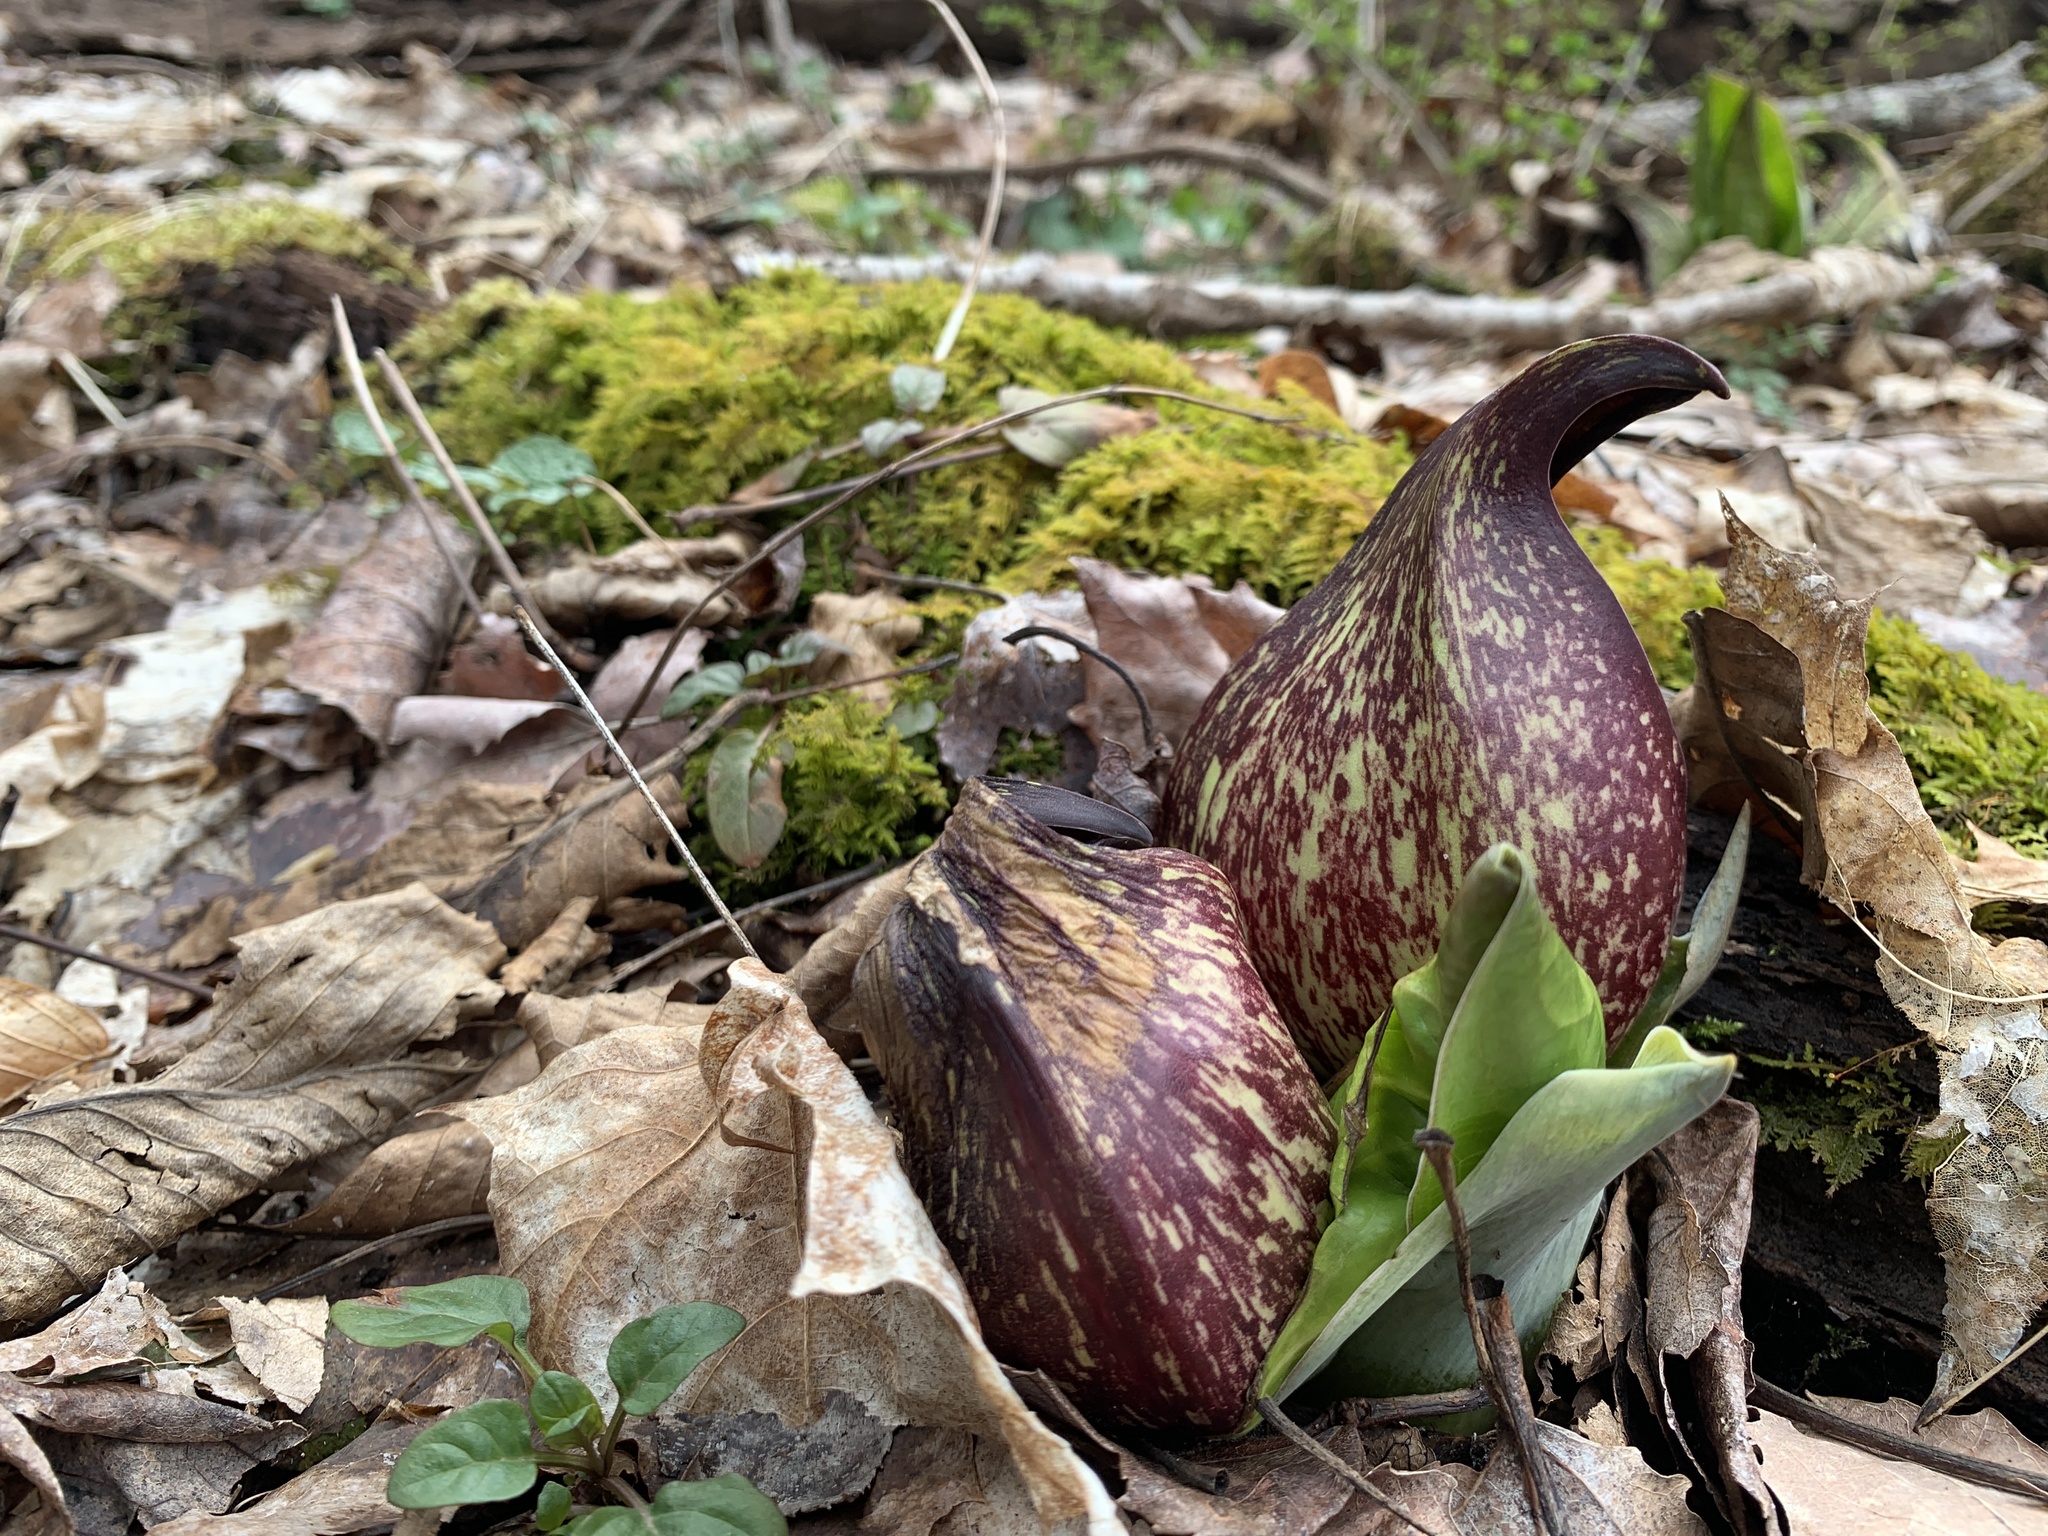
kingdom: Plantae
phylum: Tracheophyta
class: Liliopsida
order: Alismatales
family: Araceae
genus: Symplocarpus
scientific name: Symplocarpus foetidus
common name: Eastern skunk cabbage
